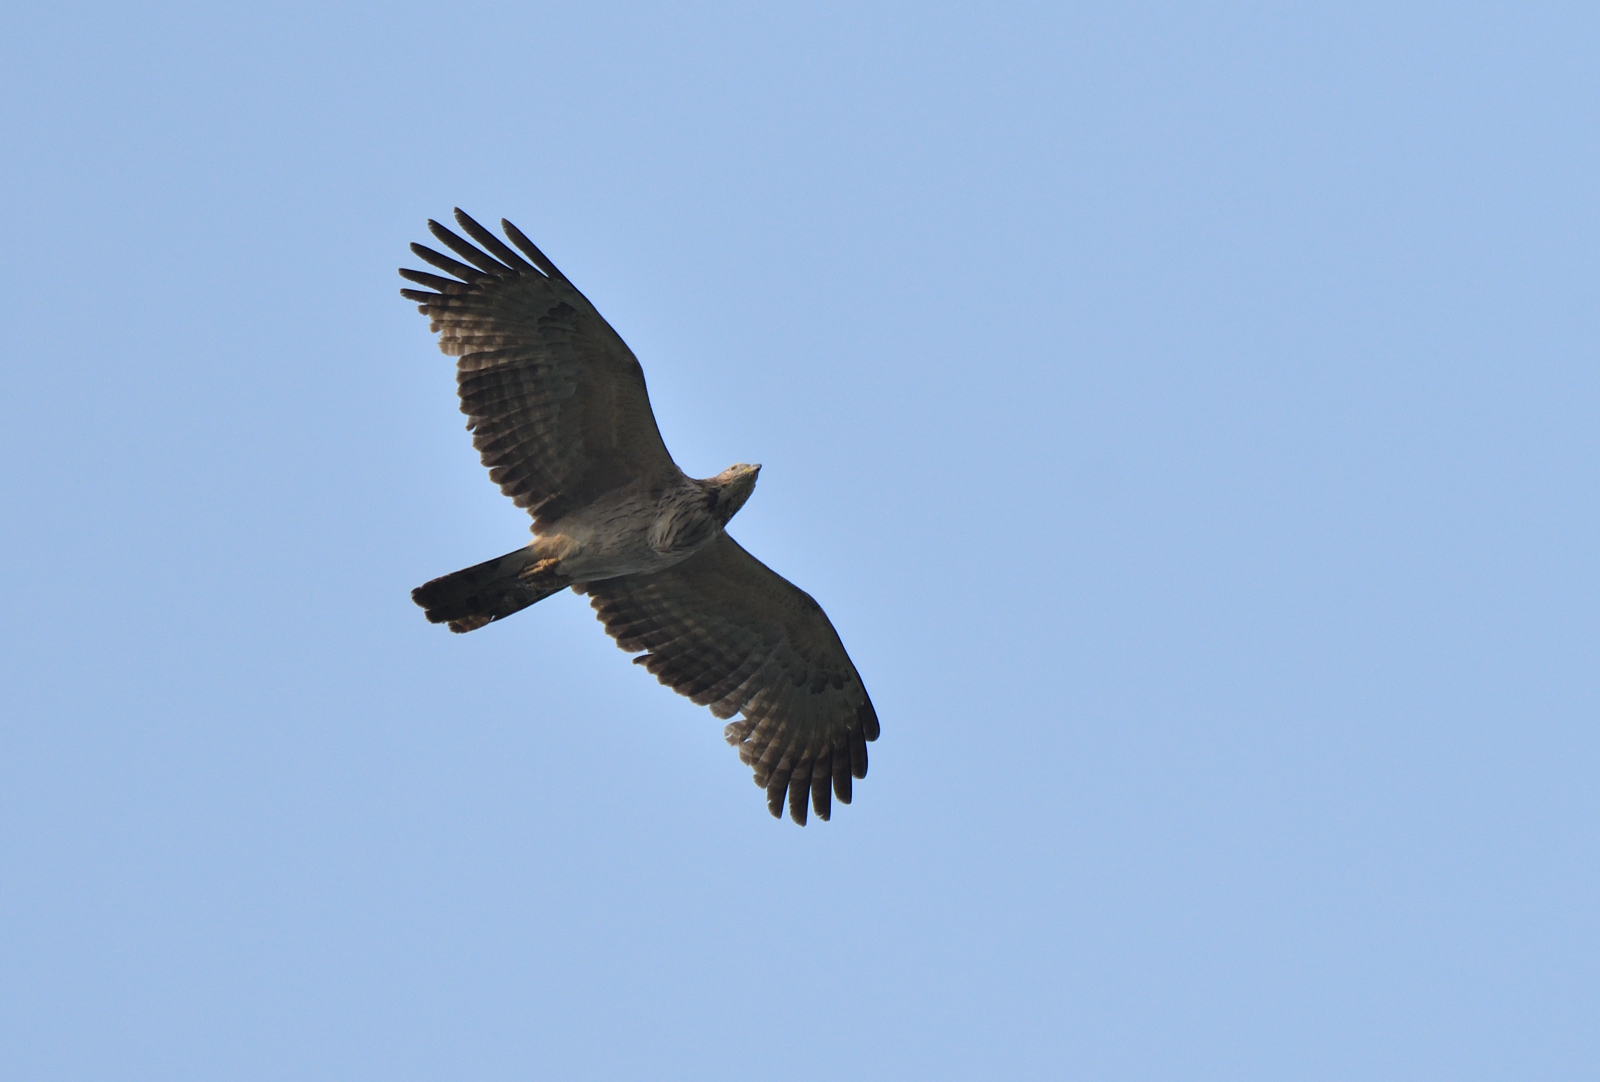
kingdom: Animalia
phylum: Chordata
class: Aves
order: Accipitriformes
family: Accipitridae
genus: Pernis
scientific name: Pernis ptilorhynchus
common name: Crested honey buzzard
